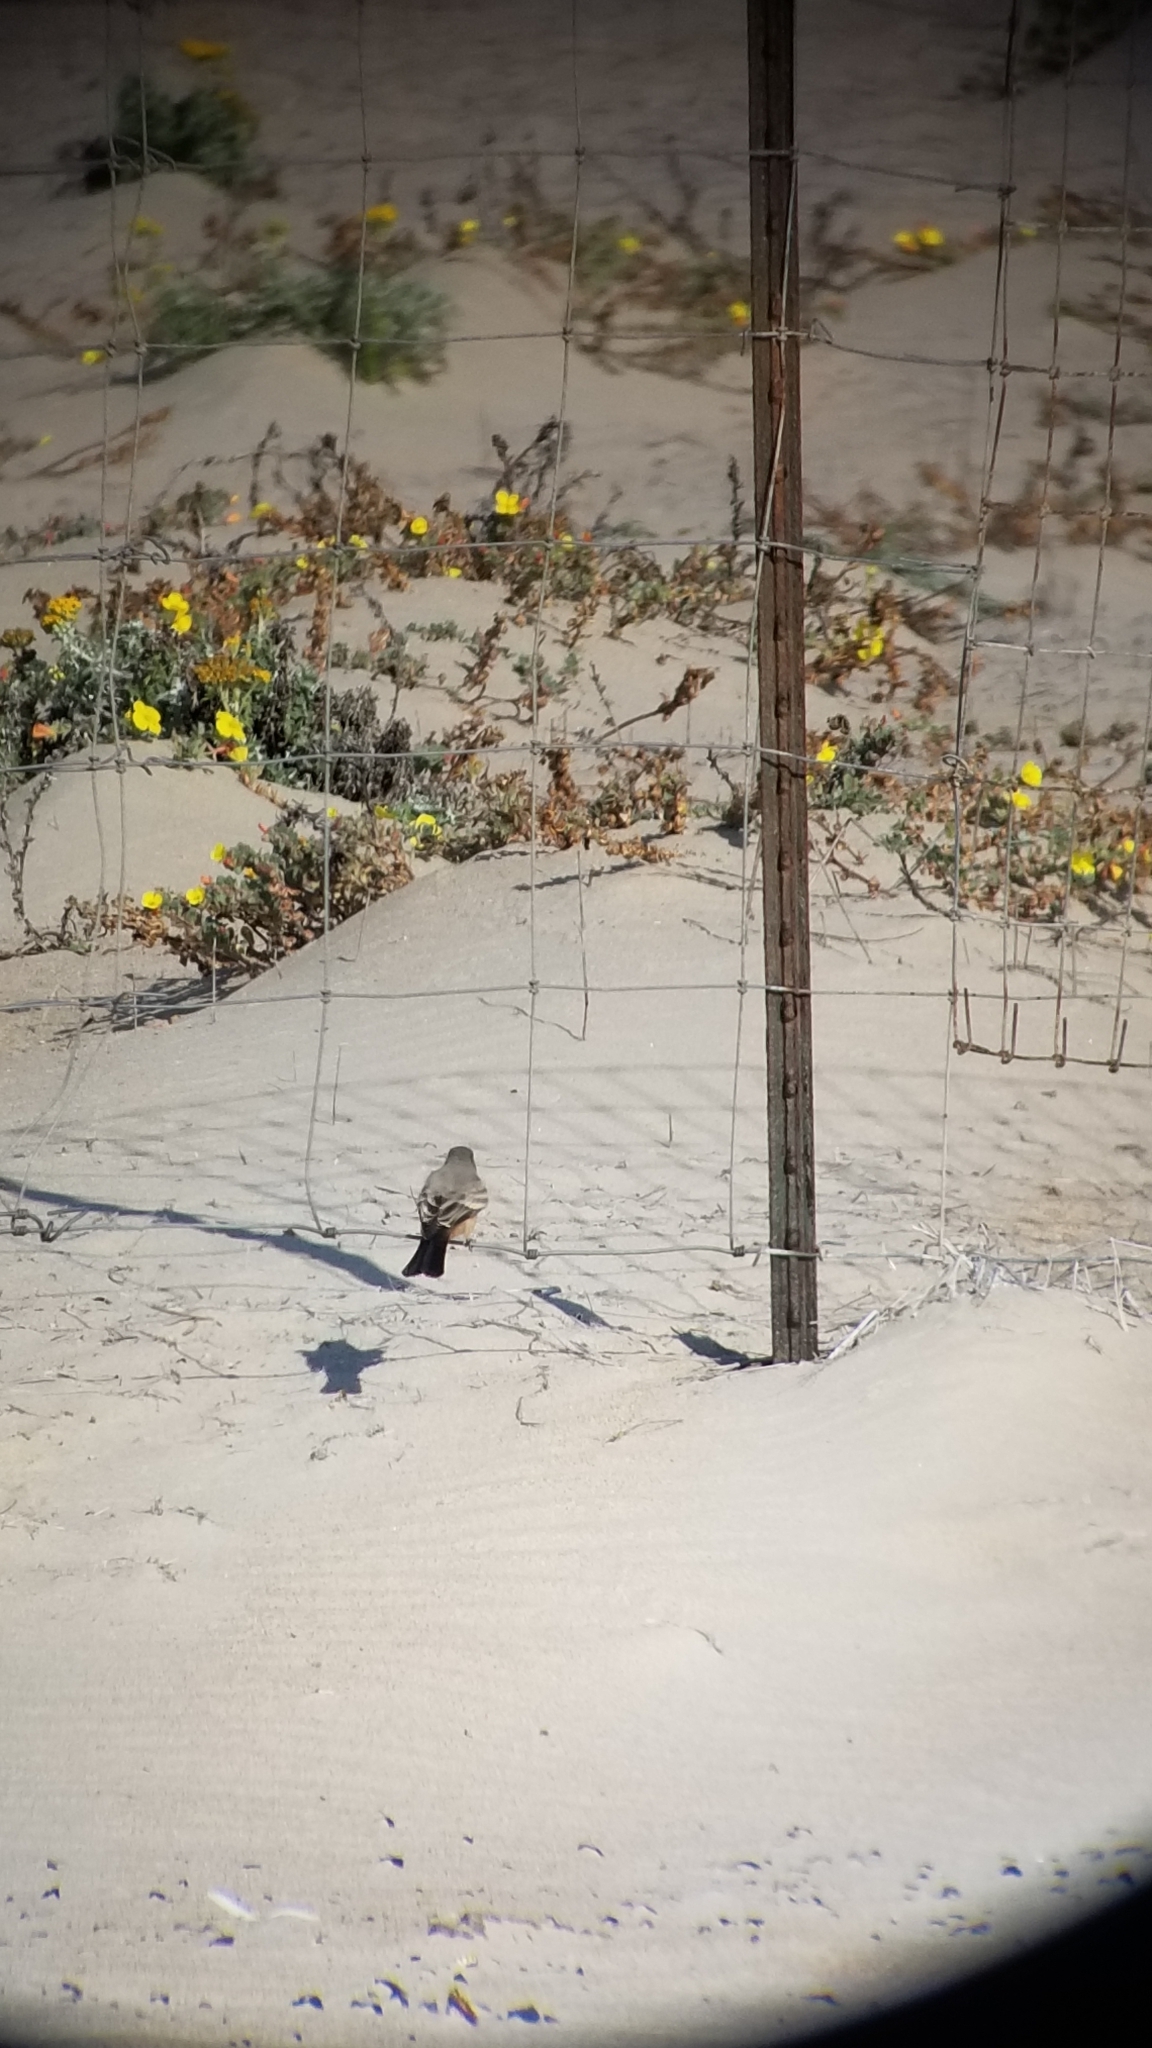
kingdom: Animalia
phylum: Chordata
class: Aves
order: Passeriformes
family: Tyrannidae
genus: Sayornis
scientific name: Sayornis saya
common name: Say's phoebe
